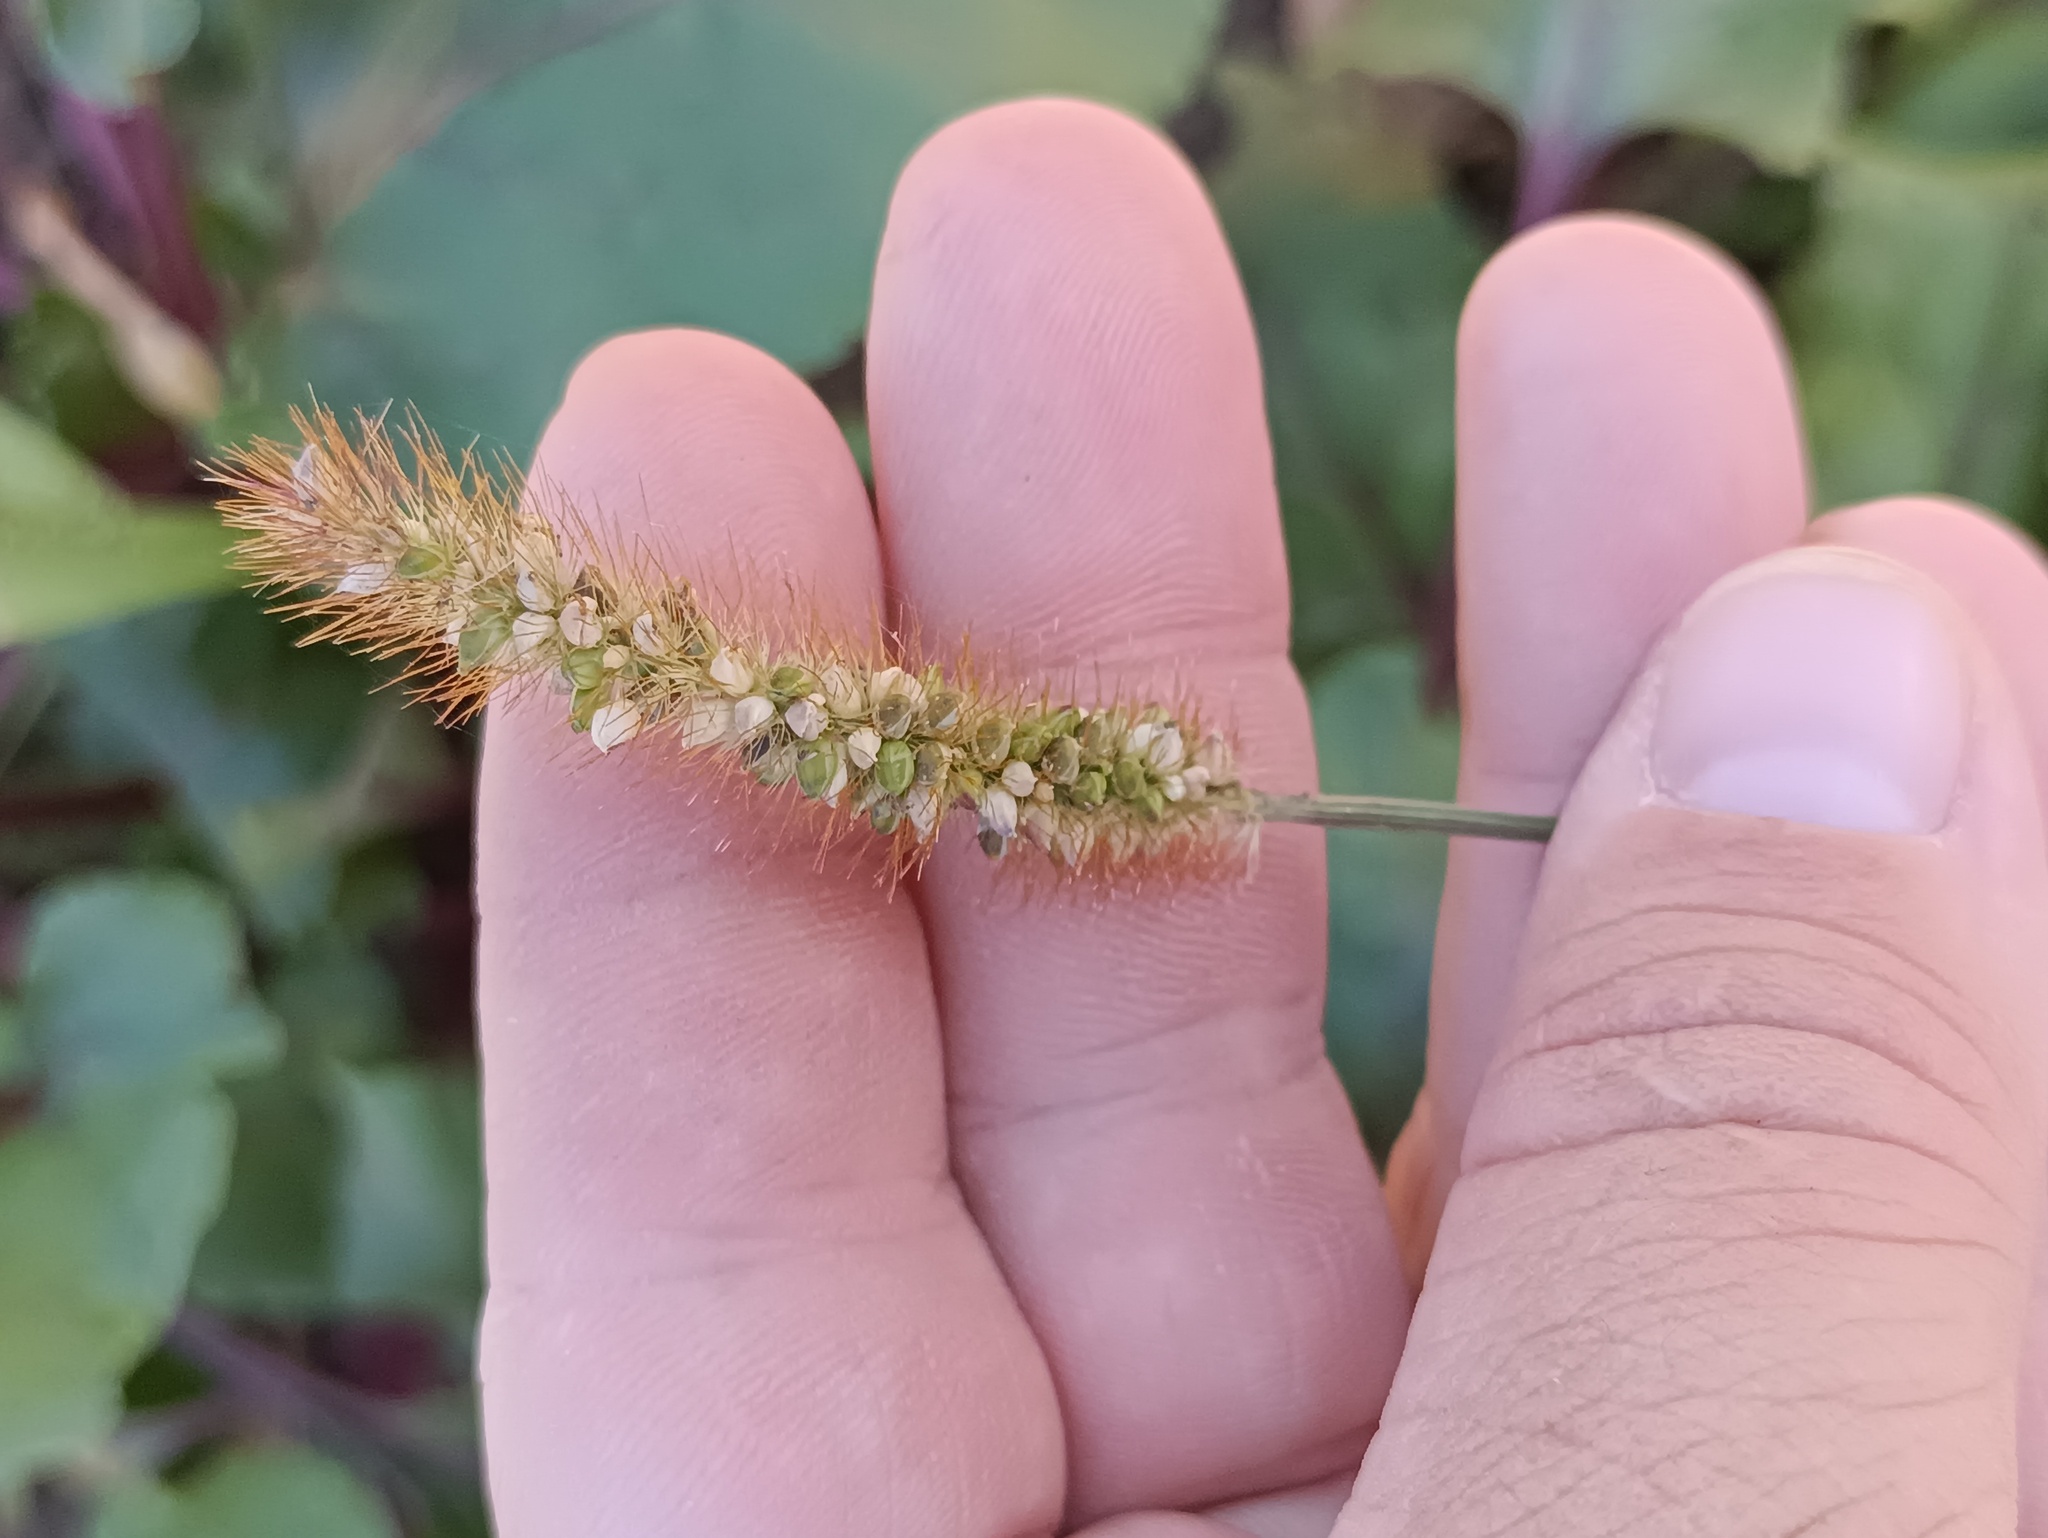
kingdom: Plantae
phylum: Tracheophyta
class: Liliopsida
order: Poales
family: Poaceae
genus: Setaria
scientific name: Setaria pumila
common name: Yellow bristle-grass
